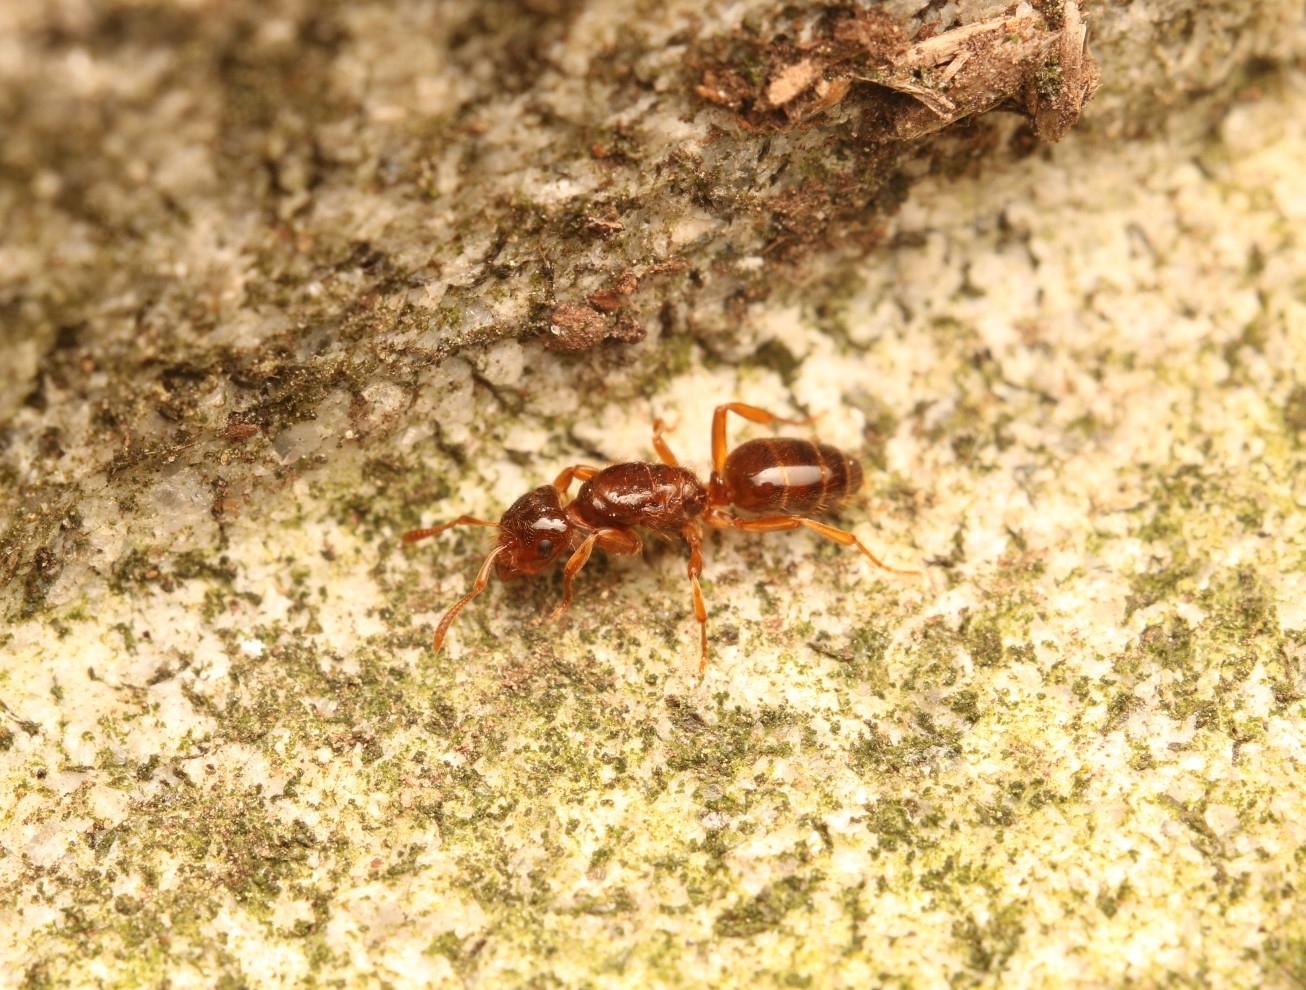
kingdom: Animalia
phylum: Arthropoda
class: Insecta
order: Hymenoptera
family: Formicidae
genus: Lasius
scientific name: Lasius claviger
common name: Common citronella ant
